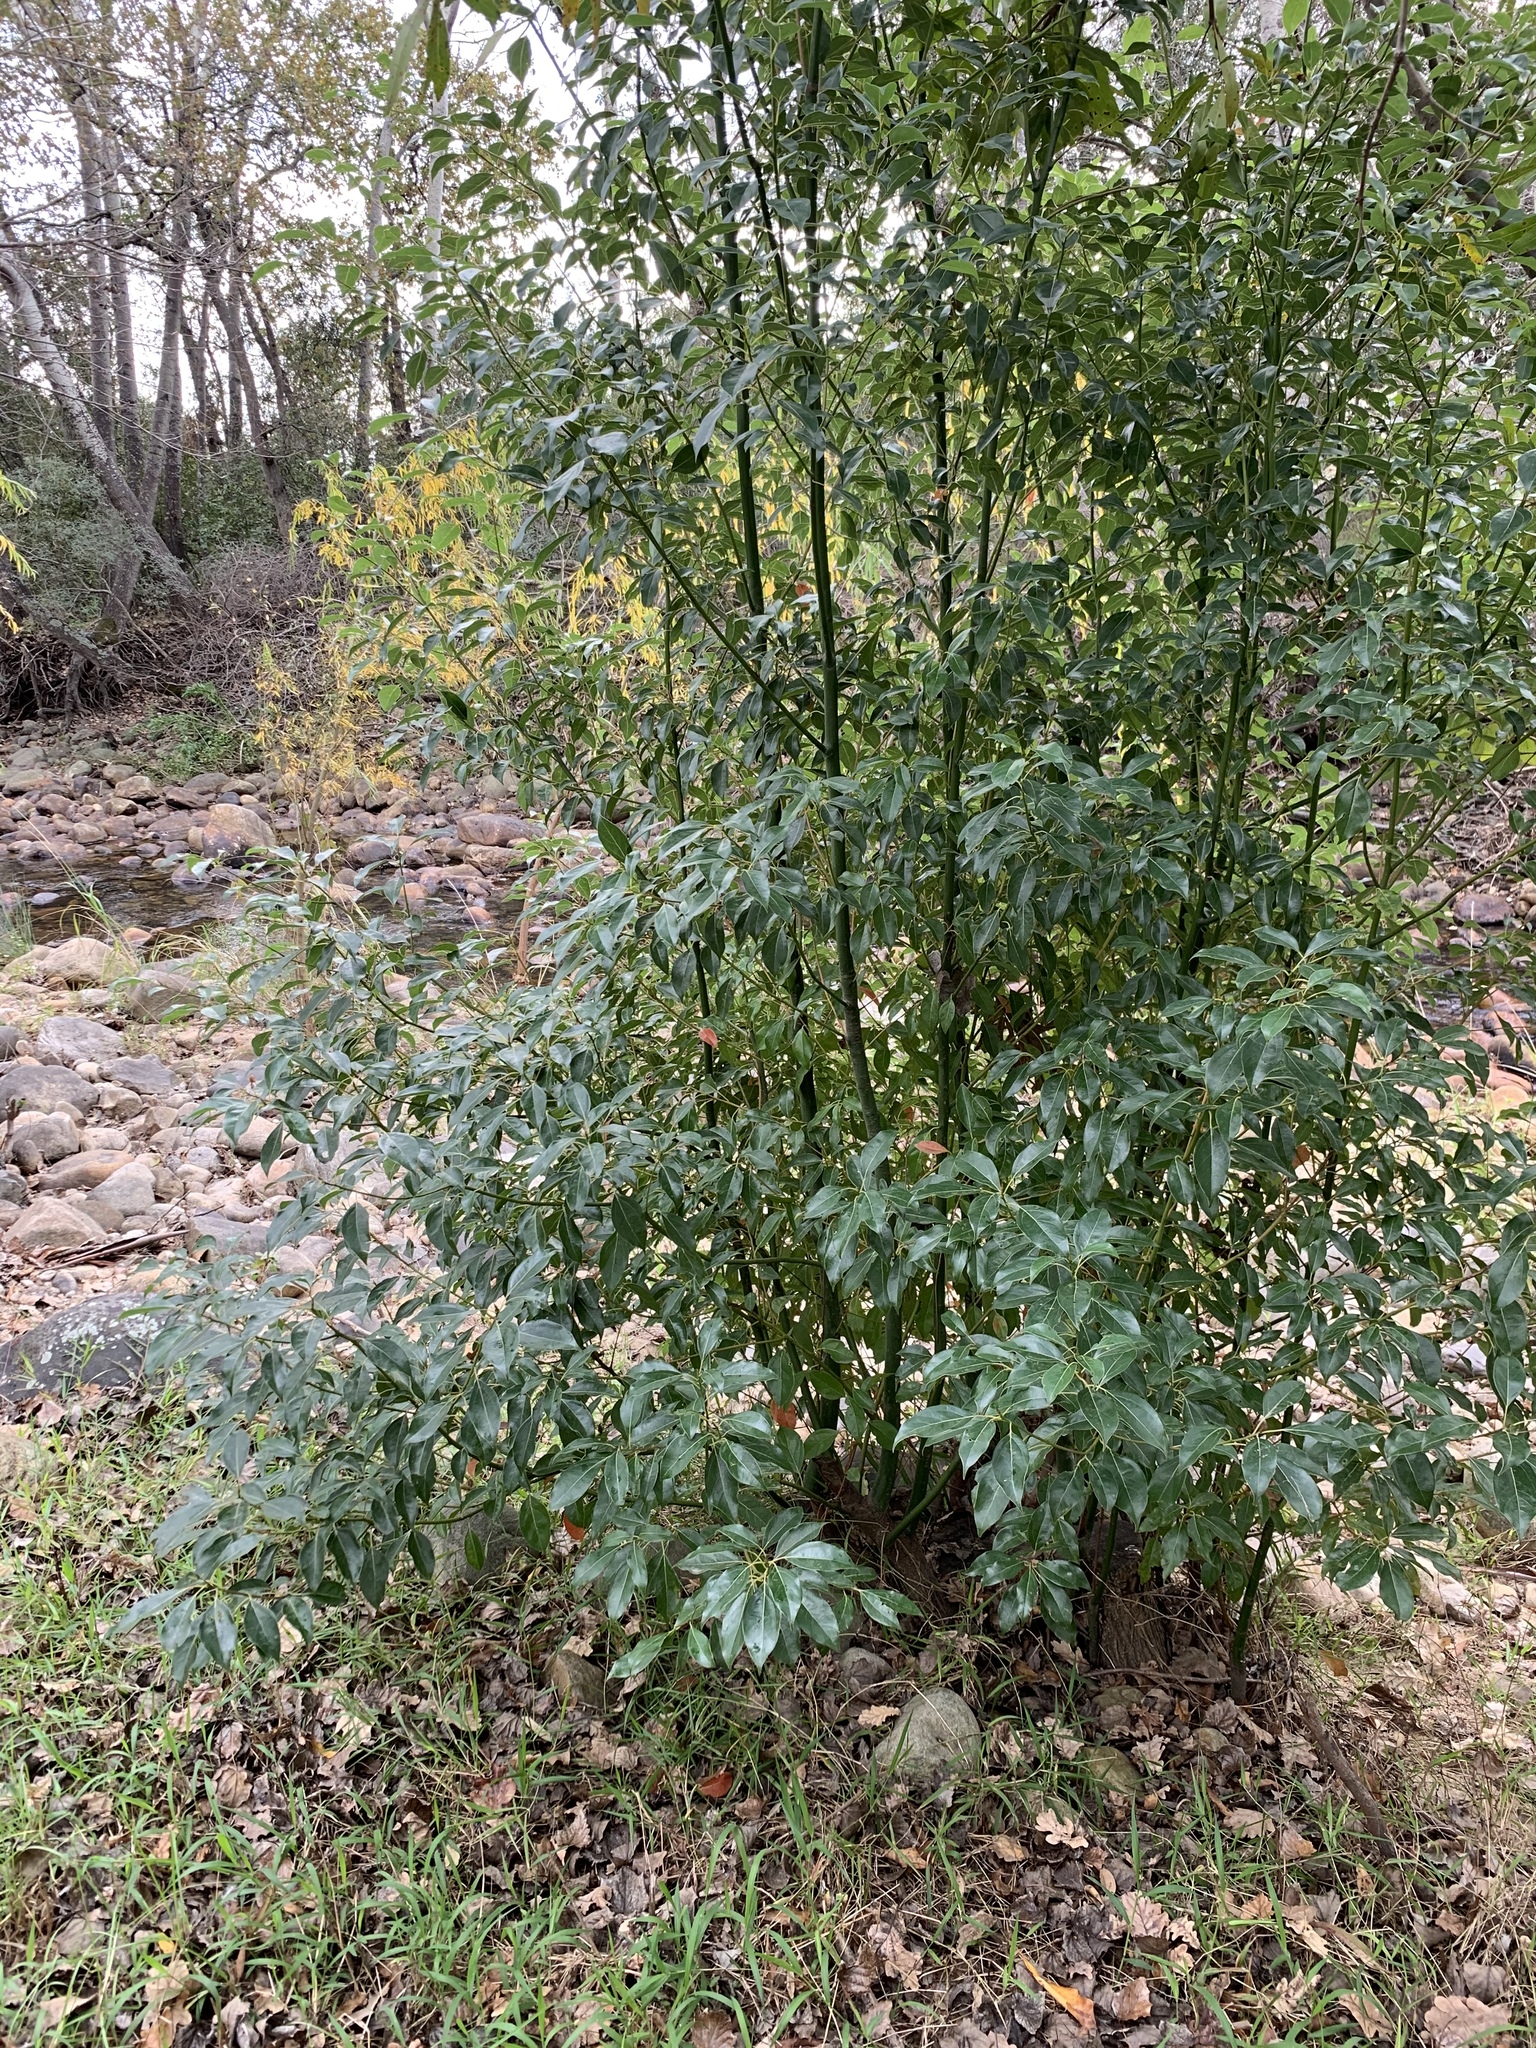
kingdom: Plantae
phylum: Tracheophyta
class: Magnoliopsida
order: Laurales
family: Lauraceae
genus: Cinnamomum
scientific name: Cinnamomum camphora
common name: Camphortree
